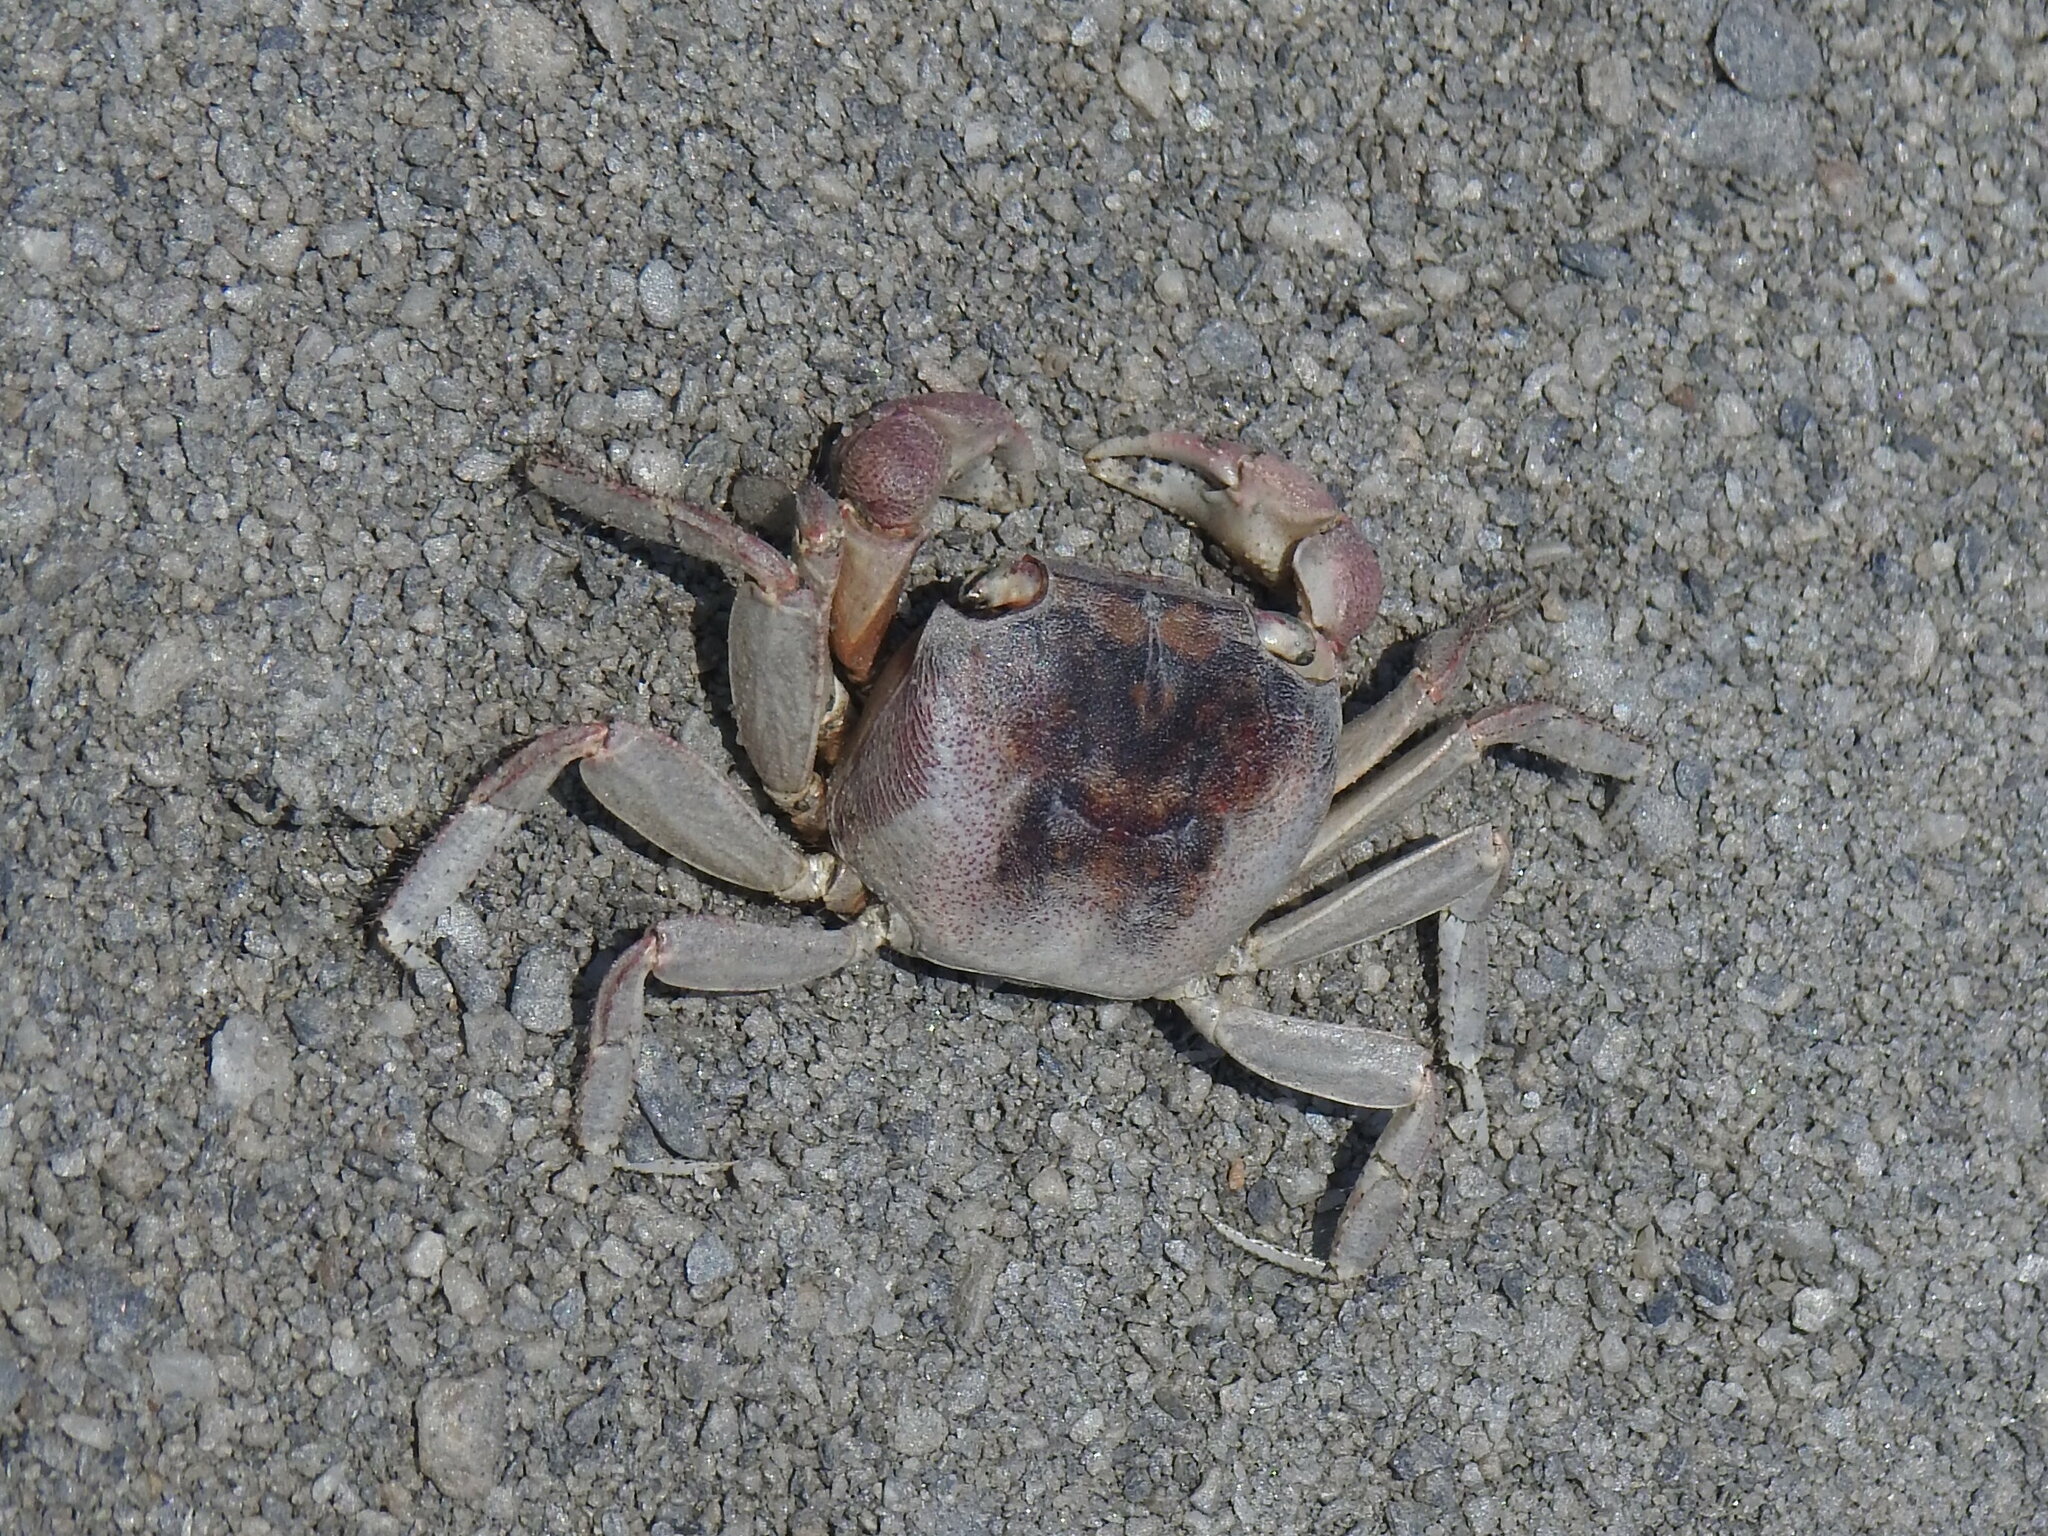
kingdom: Animalia
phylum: Arthropoda
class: Malacostraca
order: Decapoda
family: Sesarmidae
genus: Metasesarma
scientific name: Metasesarma aubryi
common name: Apple crab
